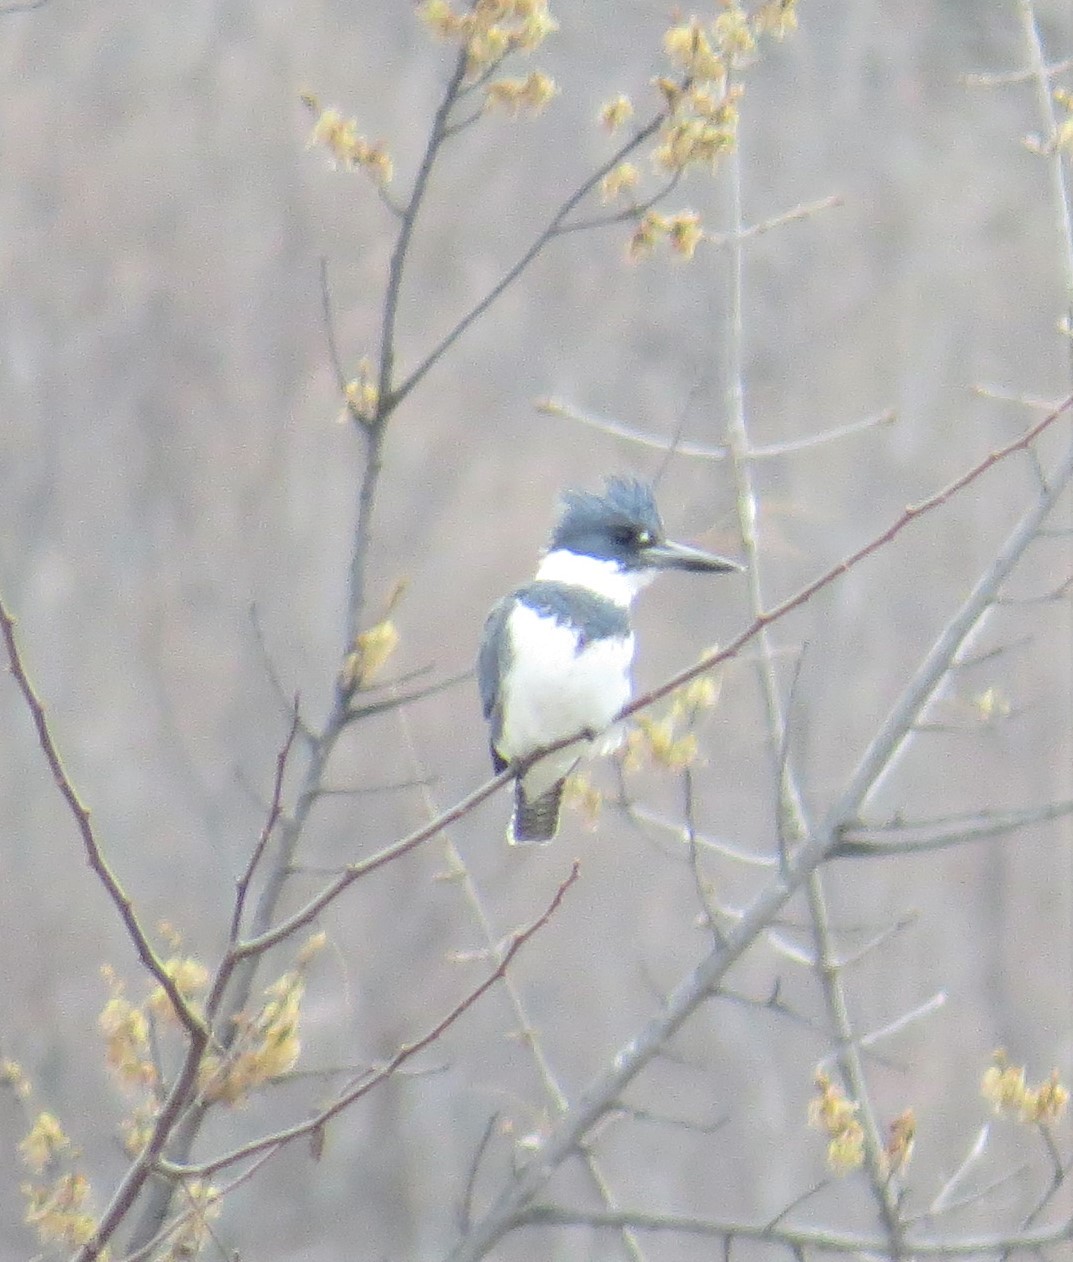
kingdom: Animalia
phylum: Chordata
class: Aves
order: Coraciiformes
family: Alcedinidae
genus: Megaceryle
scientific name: Megaceryle alcyon
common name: Belted kingfisher
